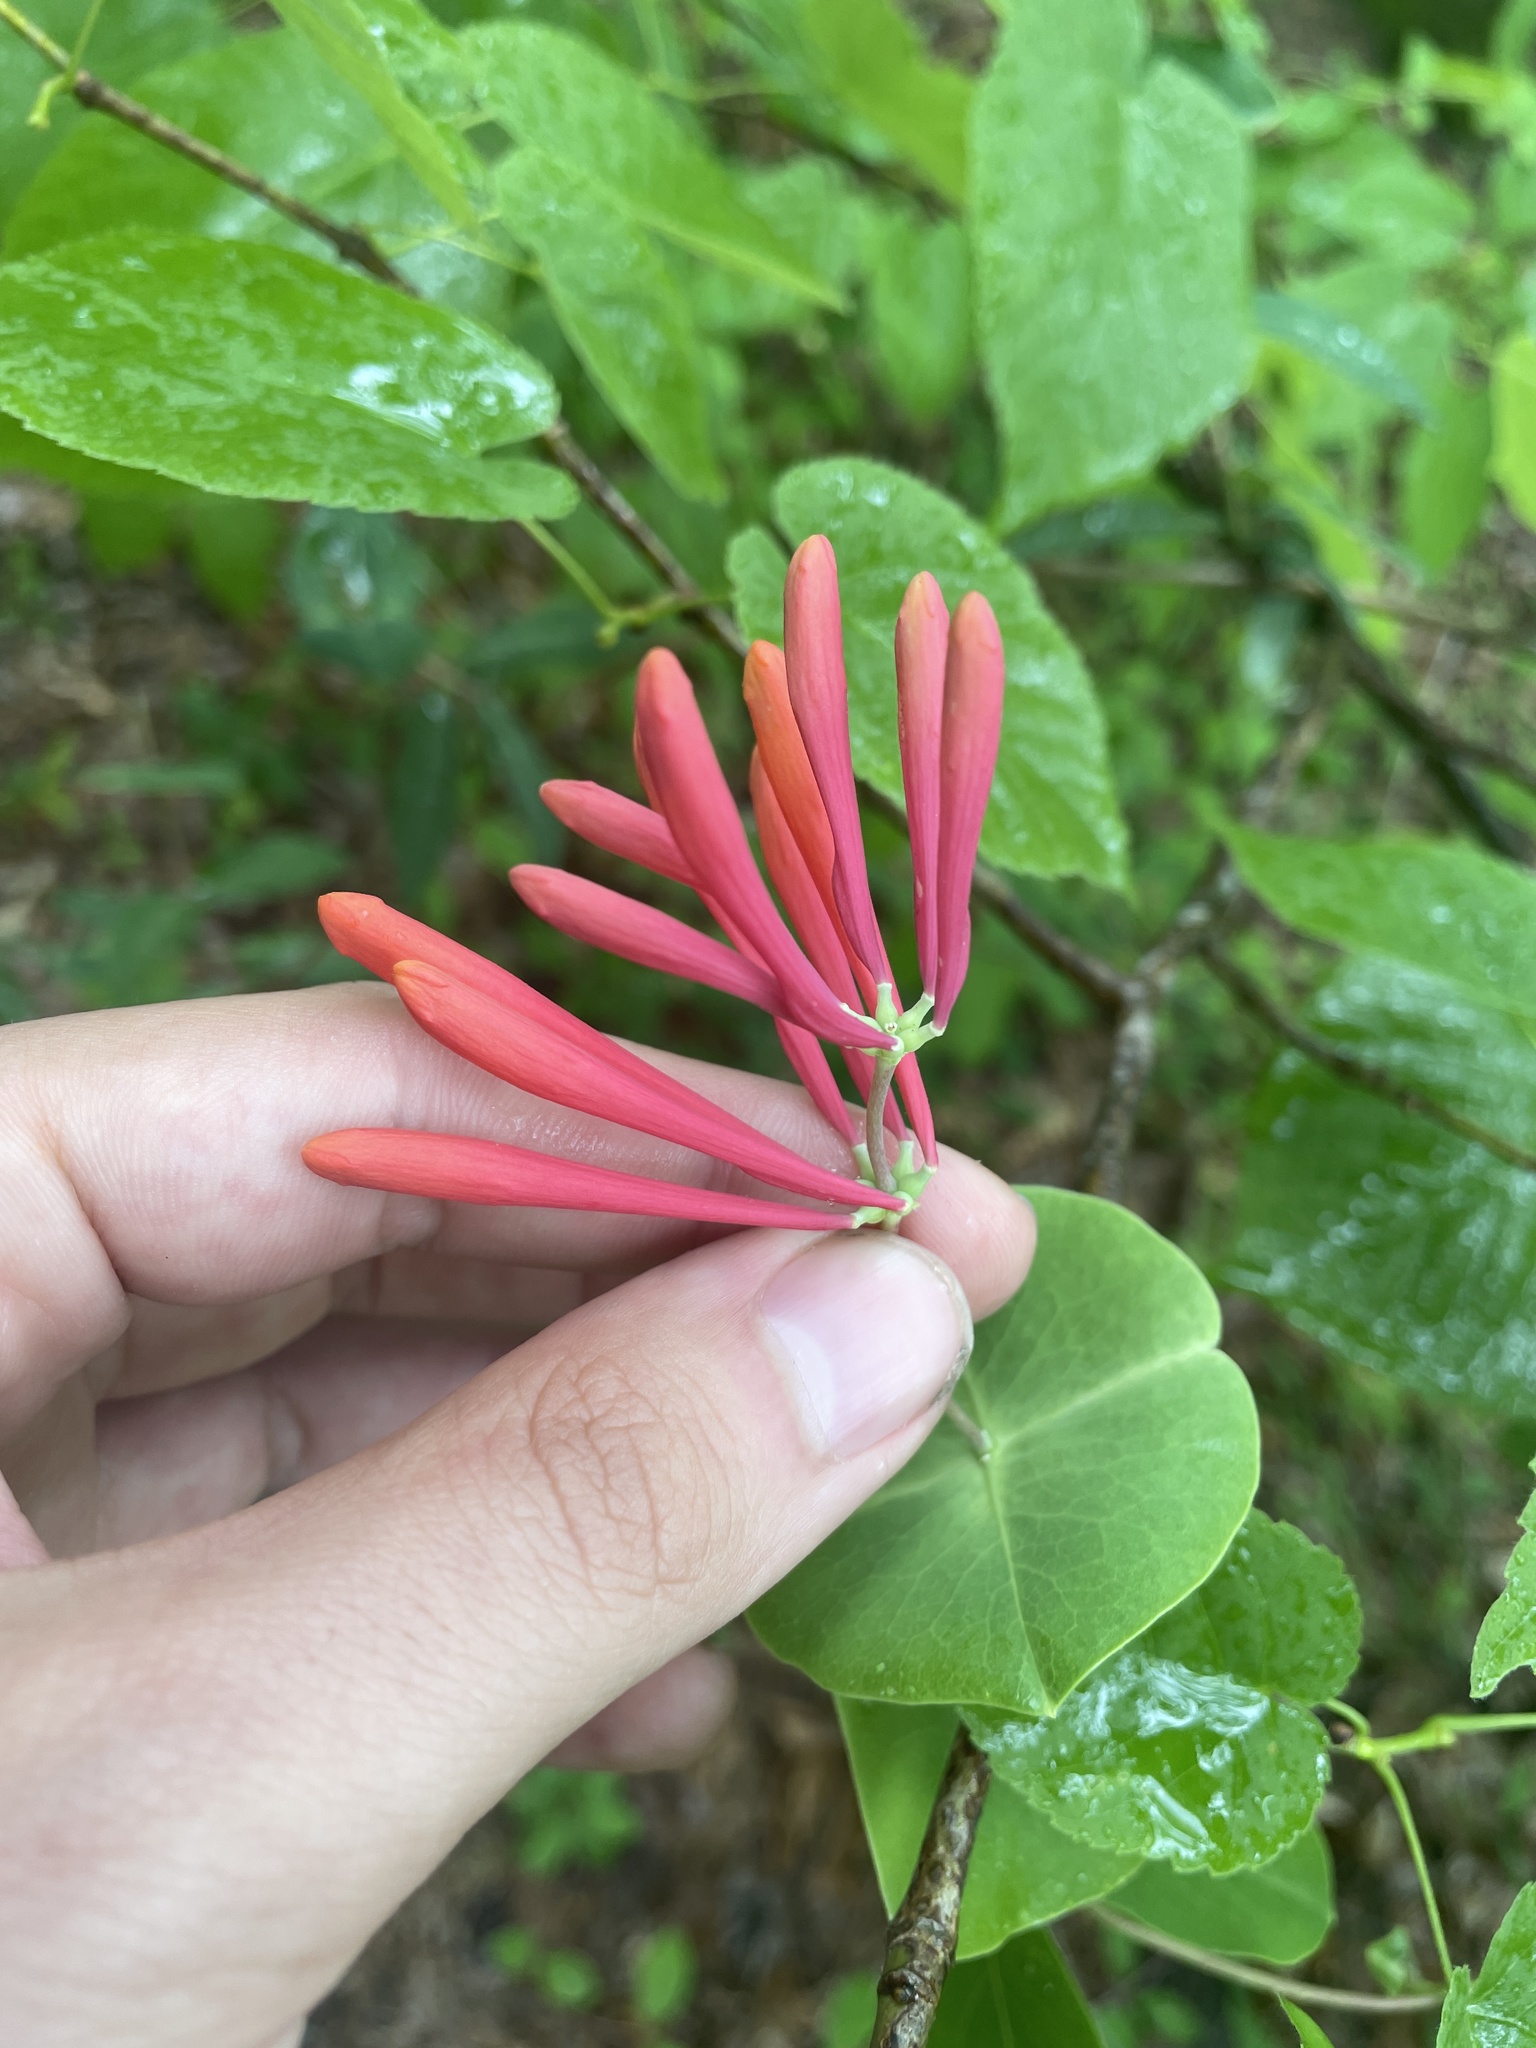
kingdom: Plantae
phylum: Tracheophyta
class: Magnoliopsida
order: Dipsacales
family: Caprifoliaceae
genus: Lonicera
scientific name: Lonicera sempervirens
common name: Coral honeysuckle
